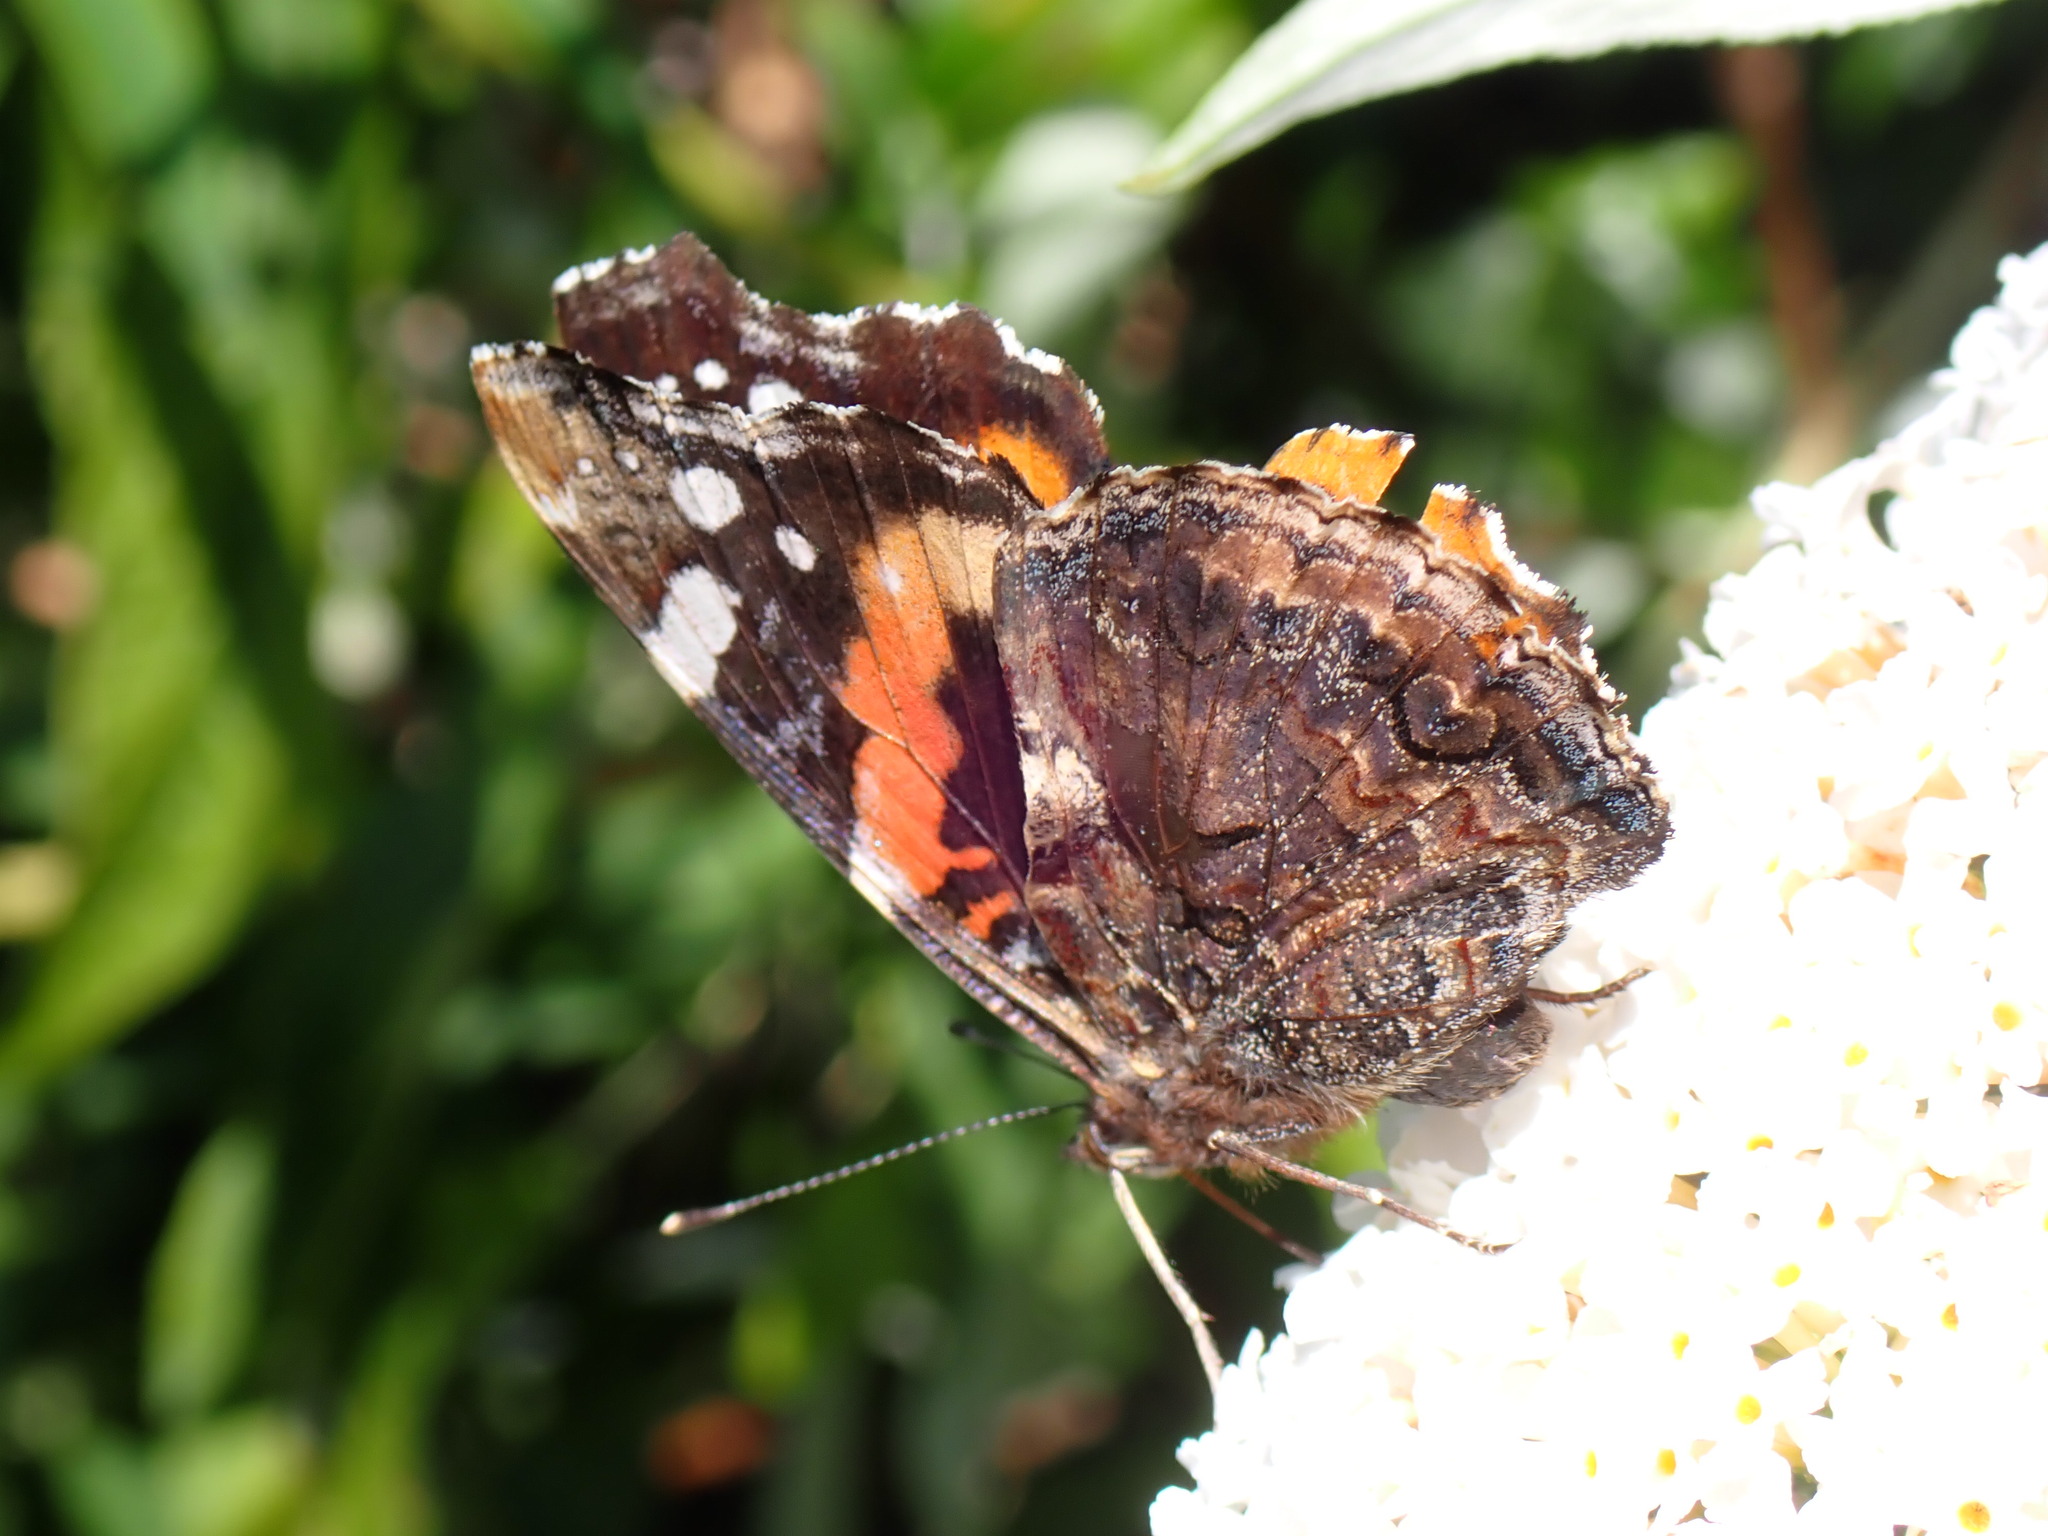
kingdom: Animalia
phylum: Arthropoda
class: Insecta
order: Lepidoptera
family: Nymphalidae
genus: Vanessa
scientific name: Vanessa atalanta
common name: Red admiral
